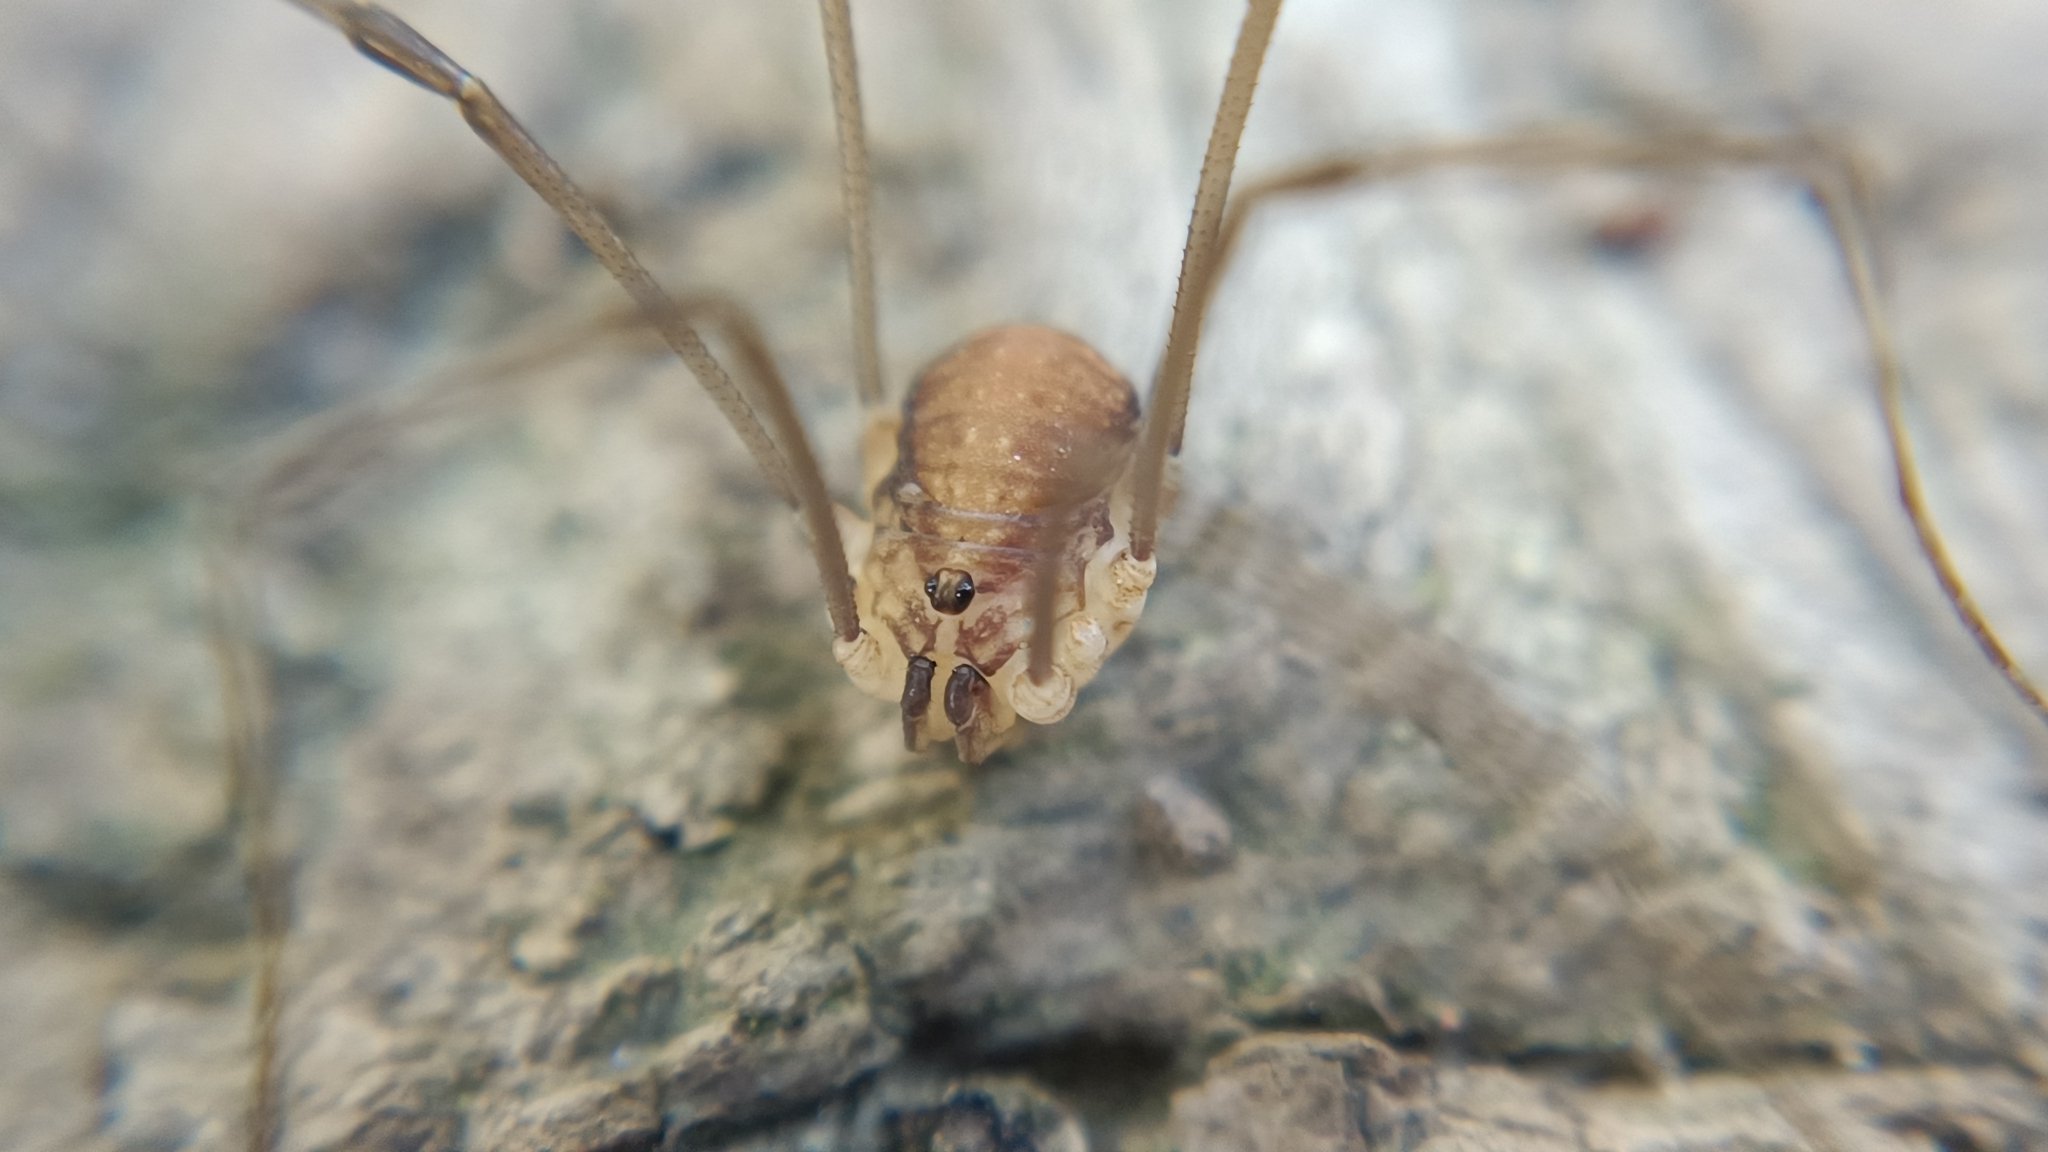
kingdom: Animalia
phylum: Arthropoda
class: Arachnida
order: Opiliones
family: Sclerosomatidae
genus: Nelima
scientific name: Nelima doriae
